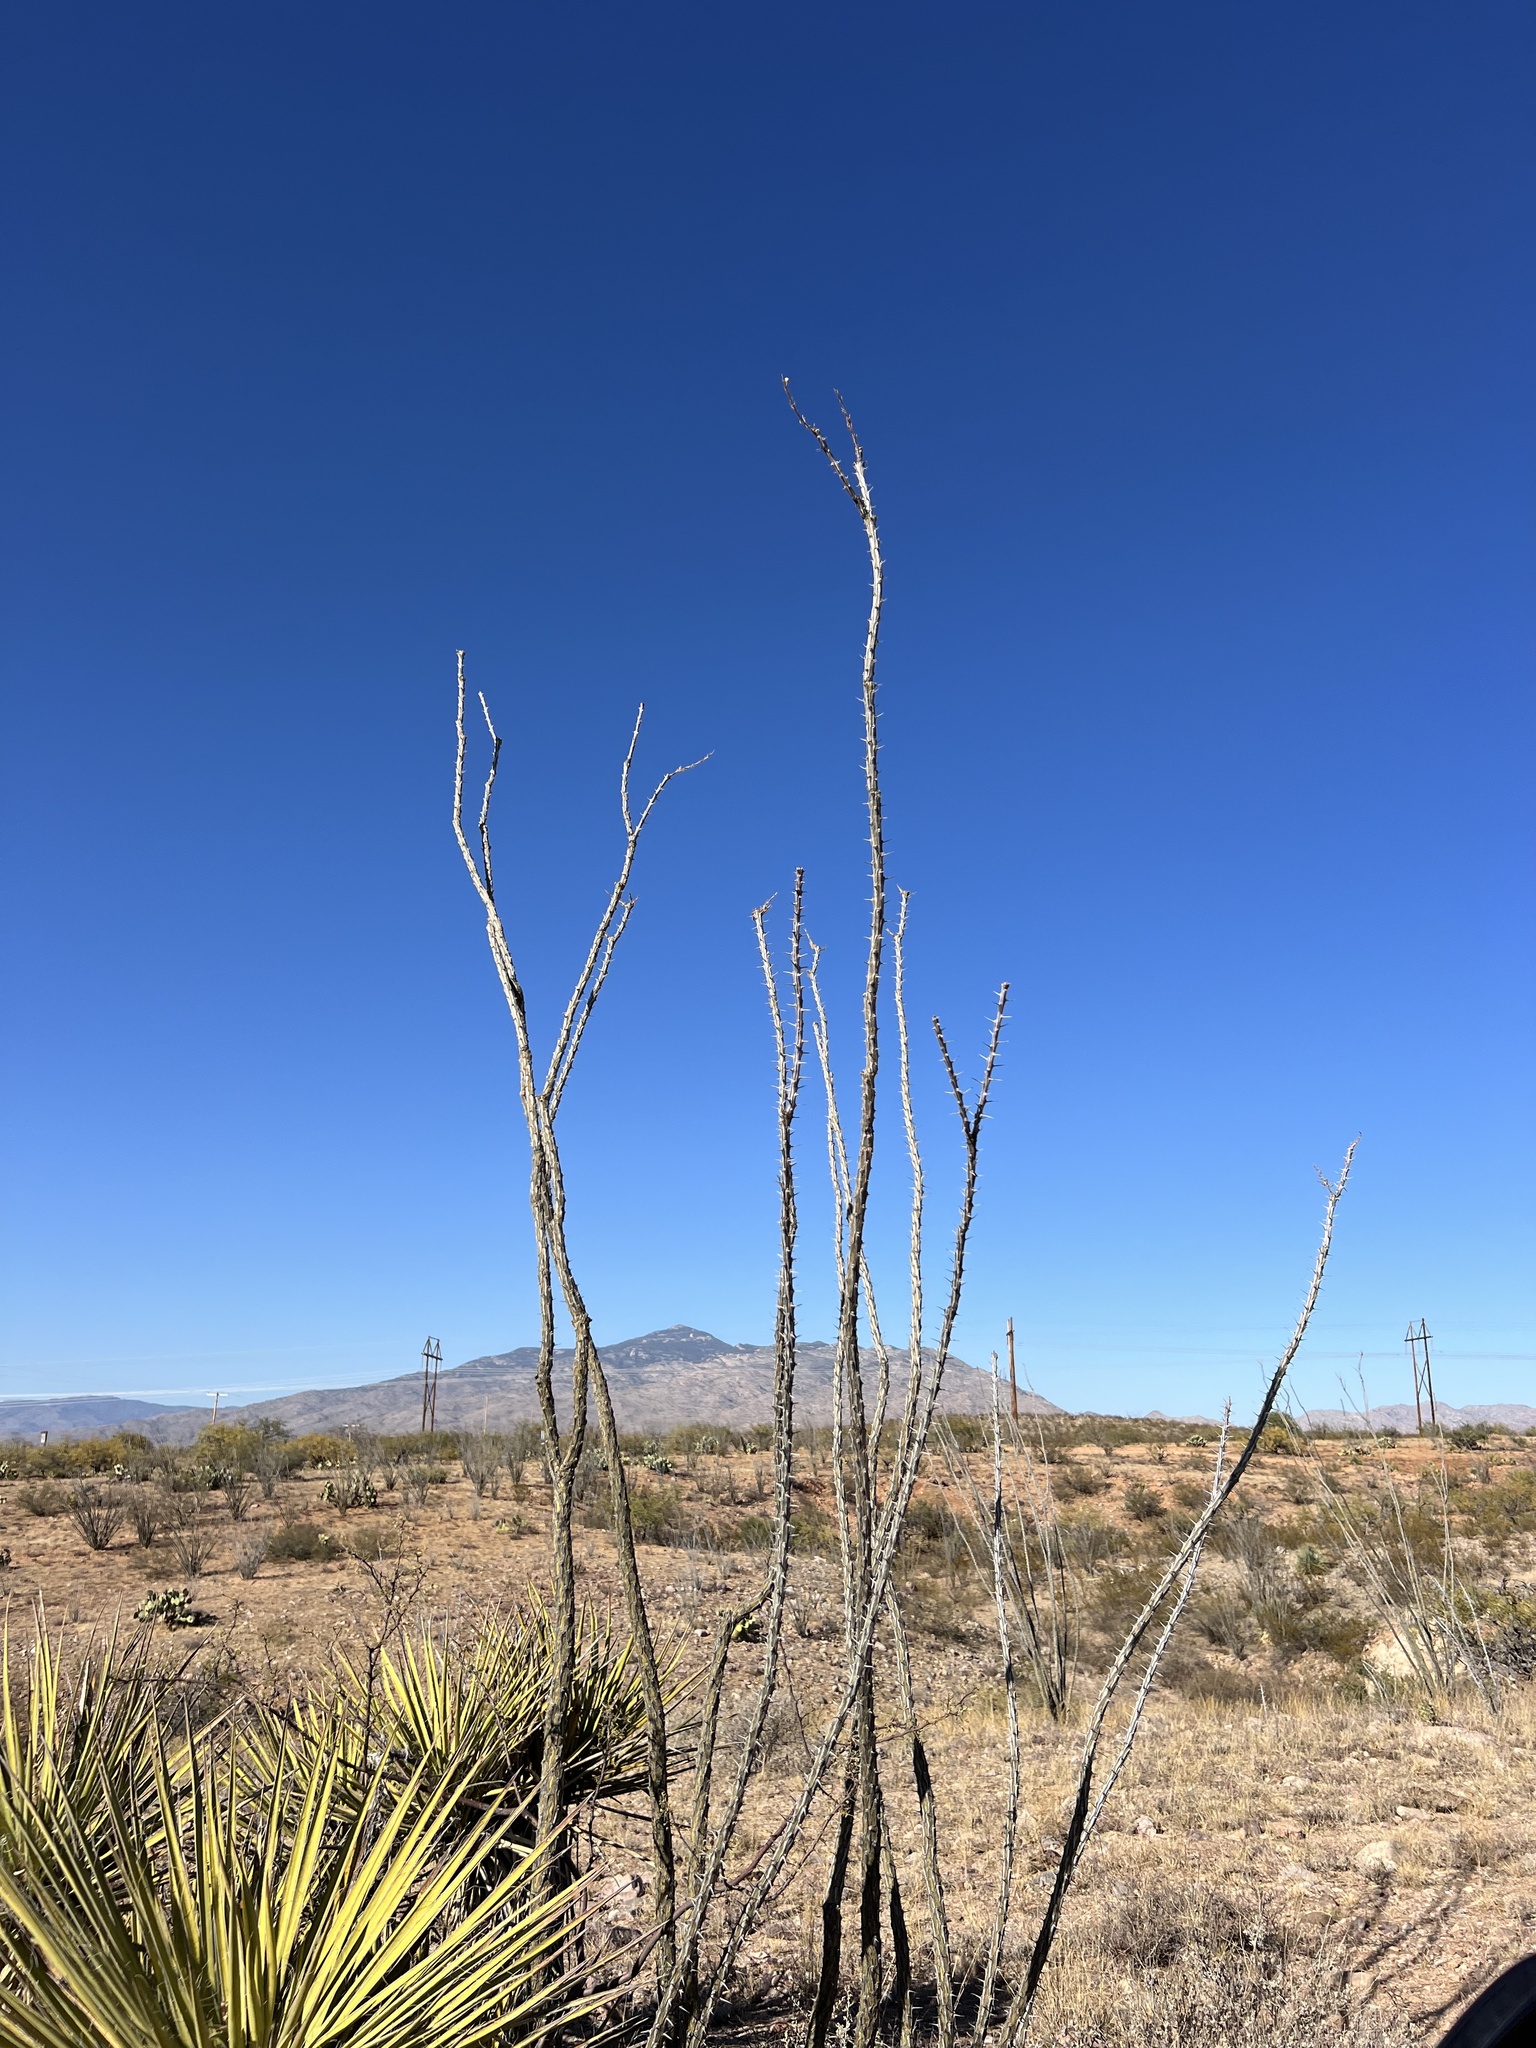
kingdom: Plantae
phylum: Tracheophyta
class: Magnoliopsida
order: Ericales
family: Fouquieriaceae
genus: Fouquieria
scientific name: Fouquieria splendens
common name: Vine-cactus
